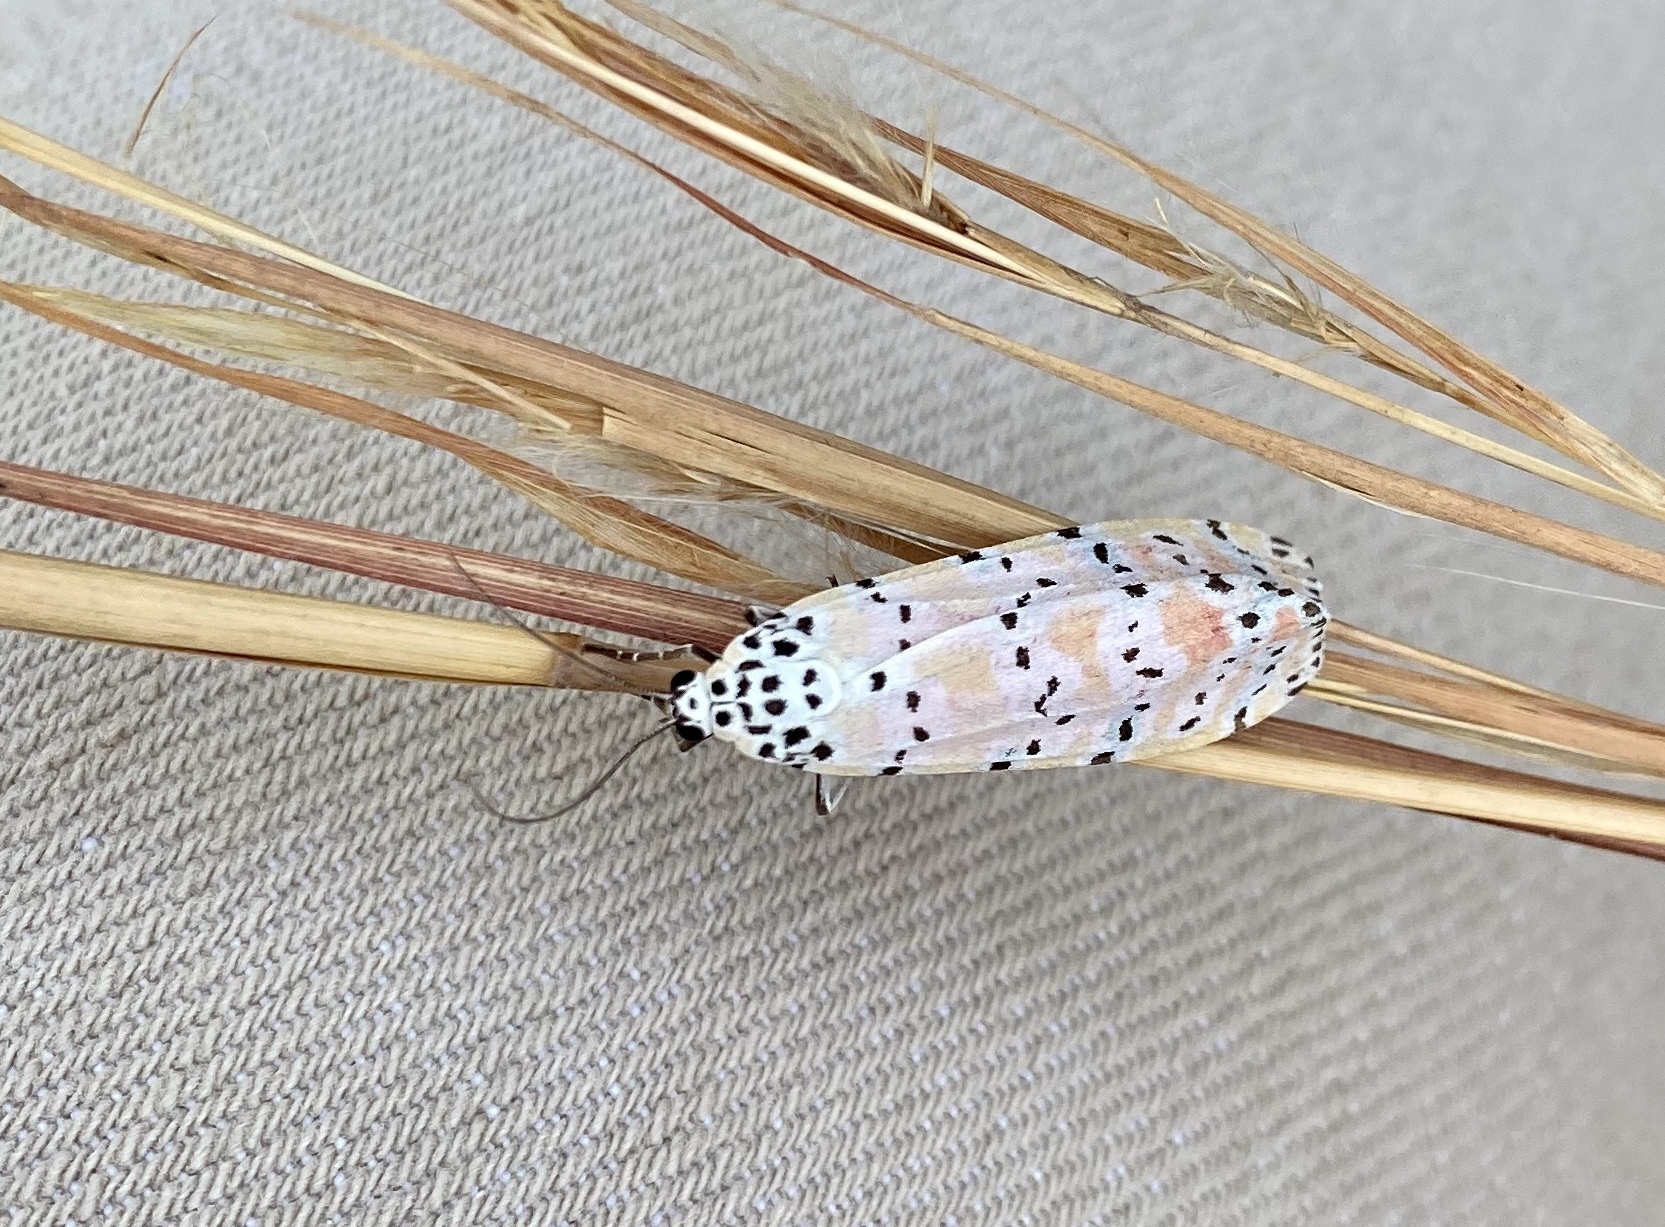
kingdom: Animalia
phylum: Arthropoda
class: Insecta
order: Lepidoptera
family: Erebidae
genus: Utetheisa
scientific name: Utetheisa ornatrix
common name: Beautiful utetheisa
